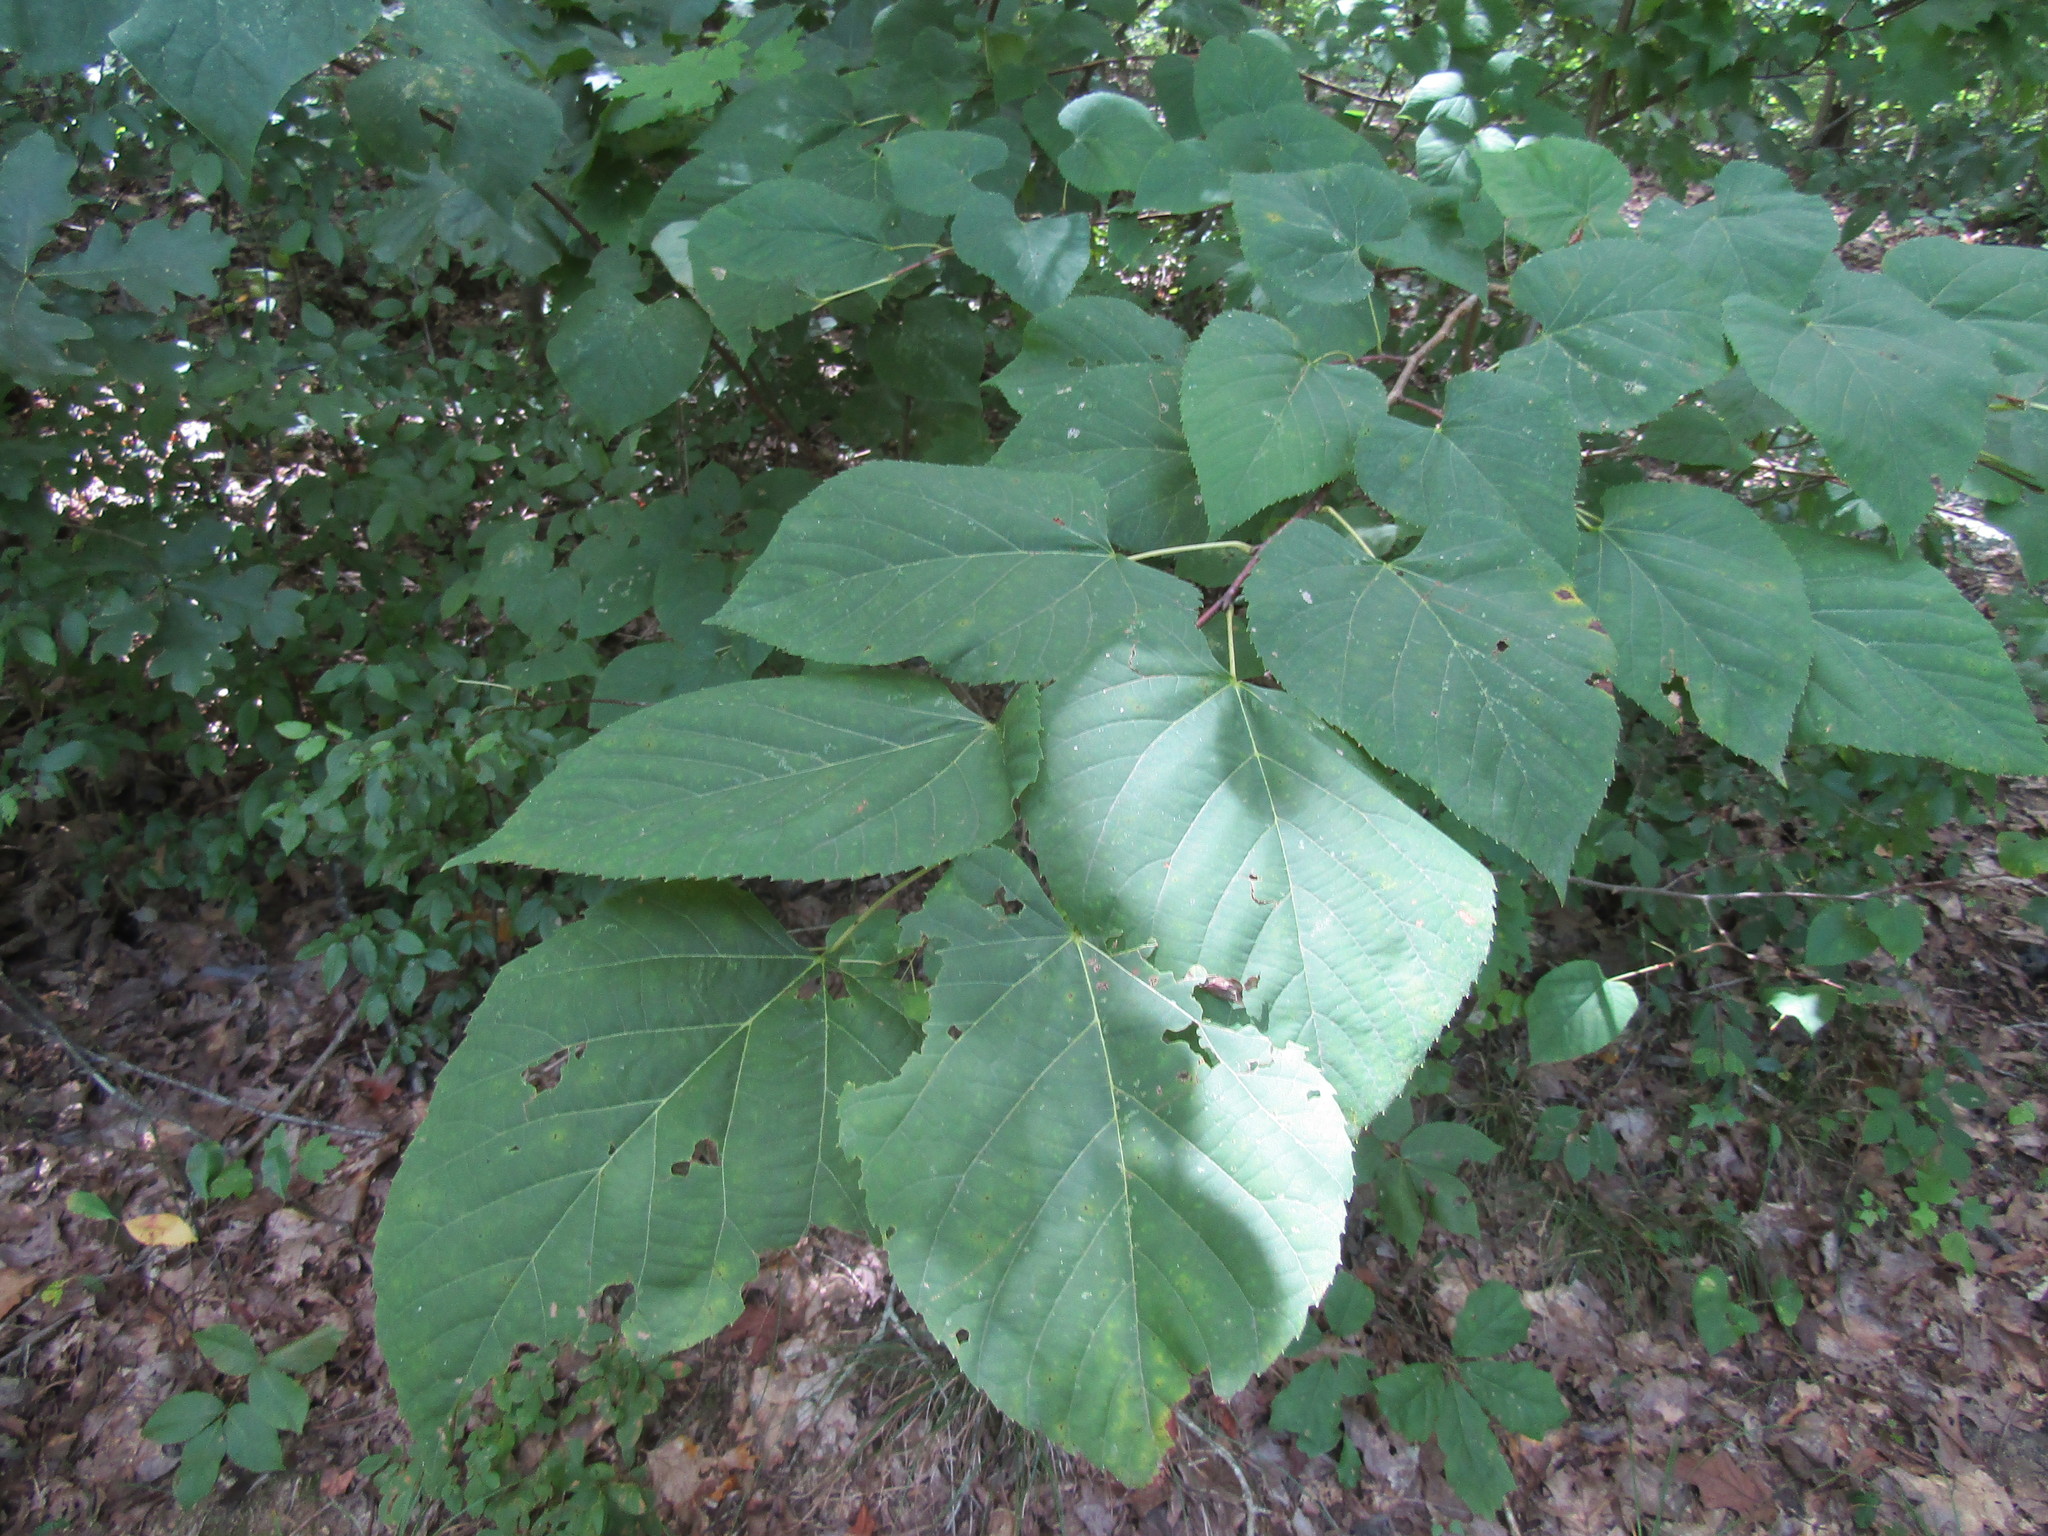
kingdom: Plantae
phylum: Tracheophyta
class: Magnoliopsida
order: Malvales
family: Malvaceae
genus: Tilia
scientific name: Tilia americana
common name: Basswood
